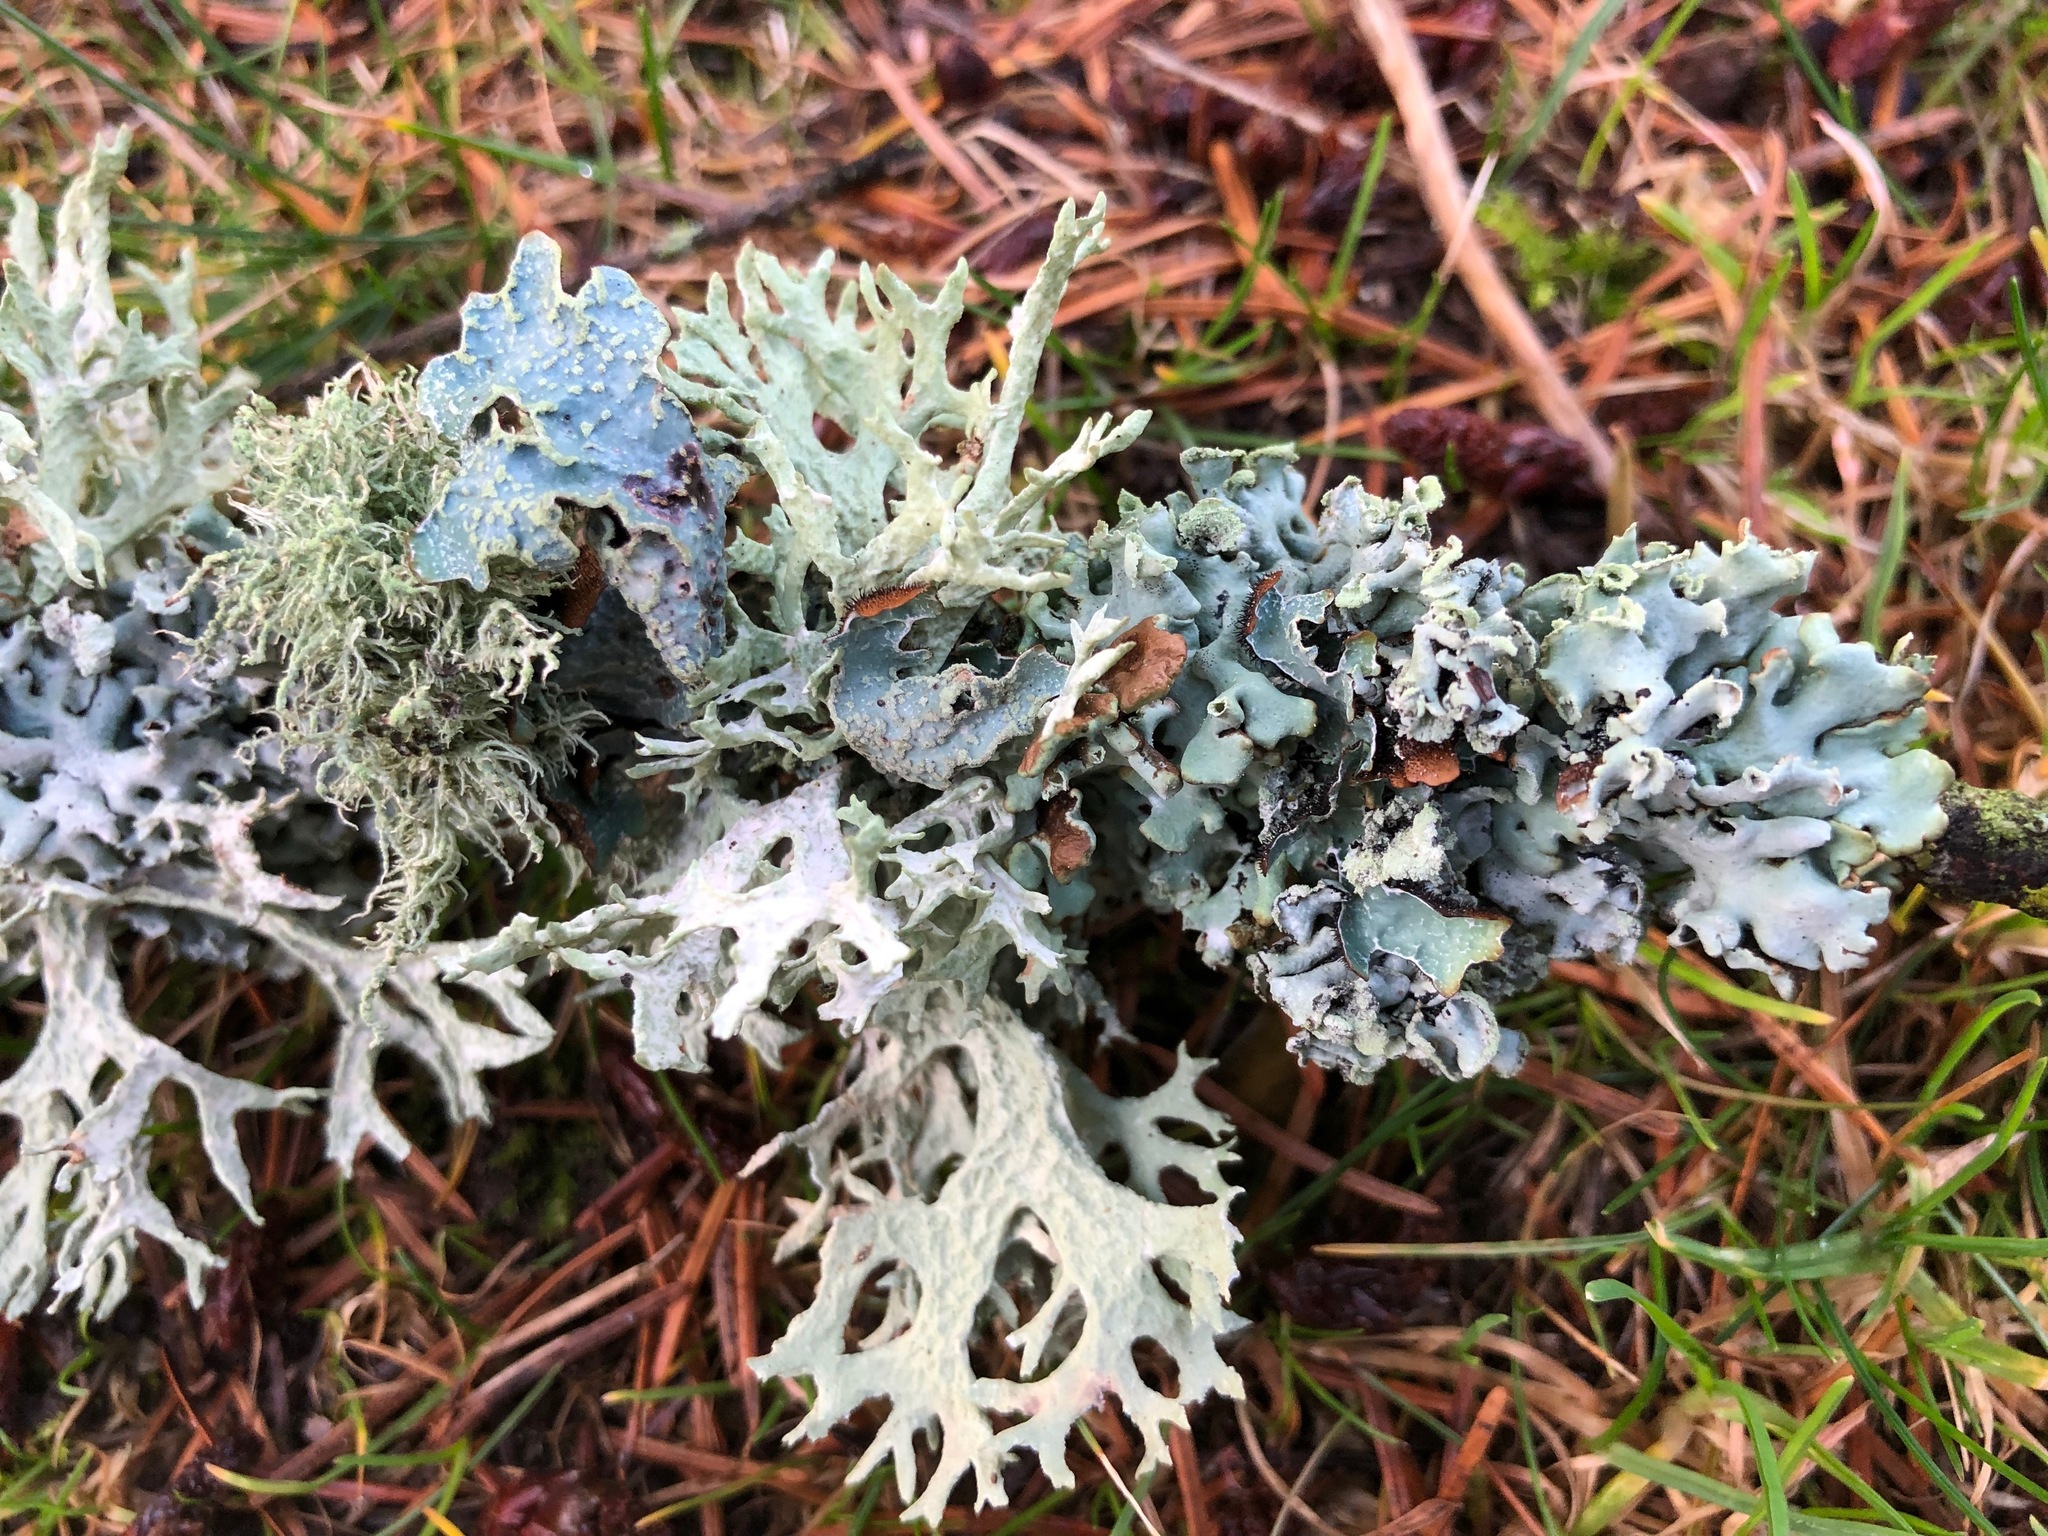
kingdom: Fungi
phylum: Ascomycota
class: Lecanoromycetes
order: Lecanorales
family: Parmeliaceae
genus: Hypogymnia
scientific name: Hypogymnia physodes
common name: Dark crottle
